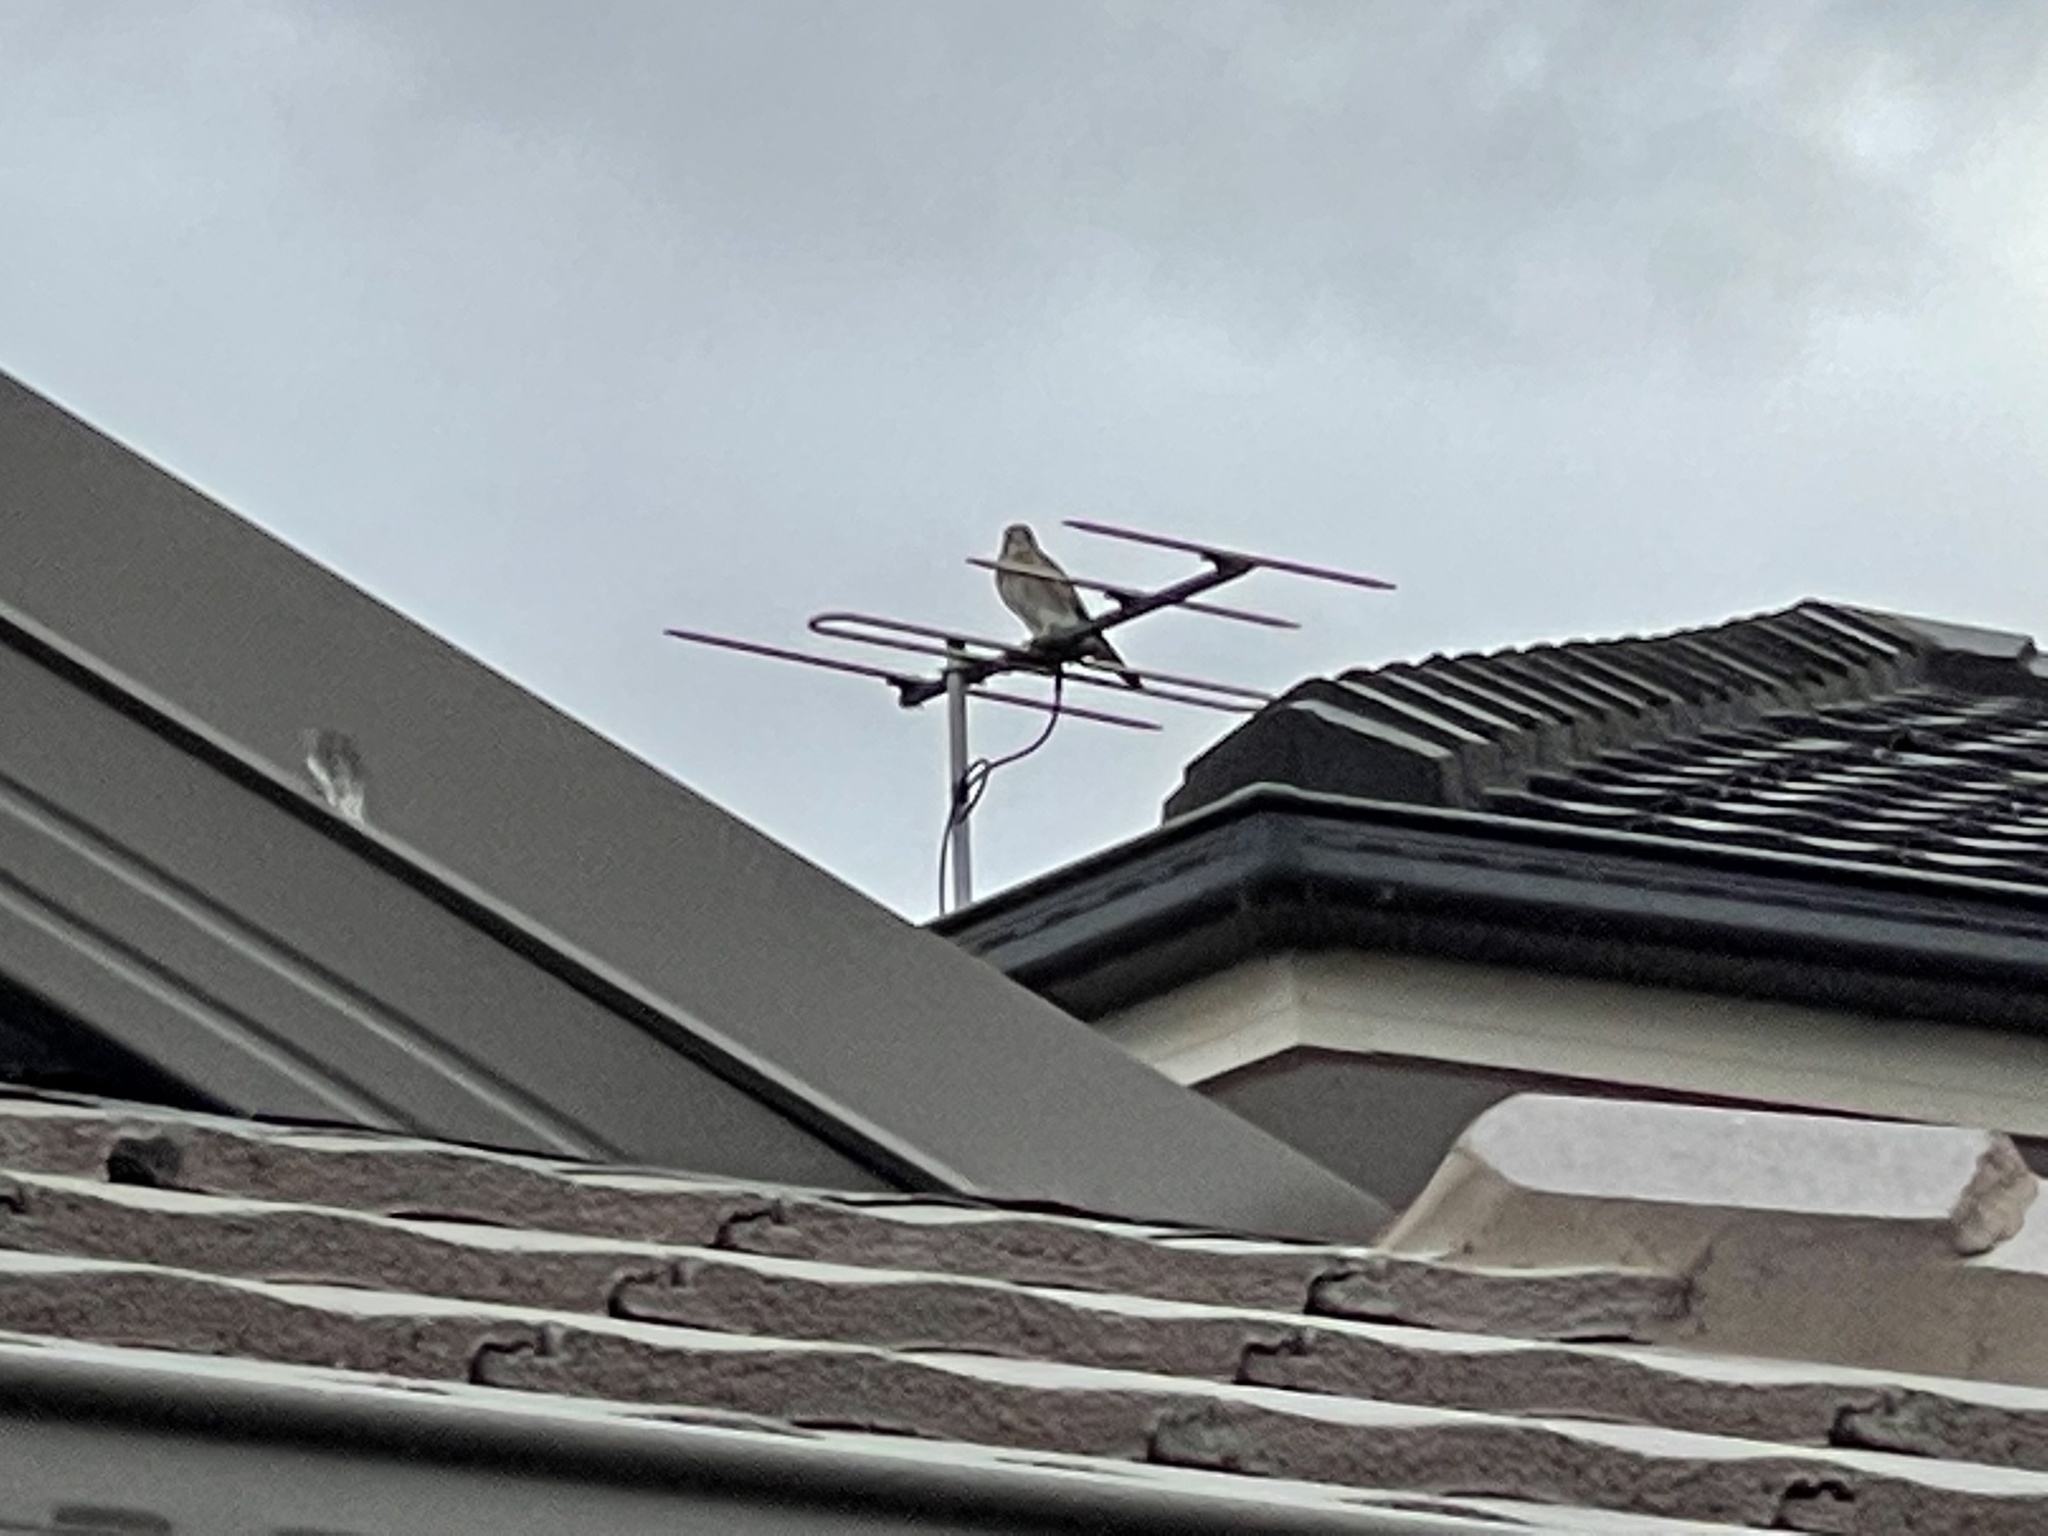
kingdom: Animalia
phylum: Chordata
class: Aves
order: Falconiformes
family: Falconidae
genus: Falco
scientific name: Falco cenchroides
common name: Nankeen kestrel
